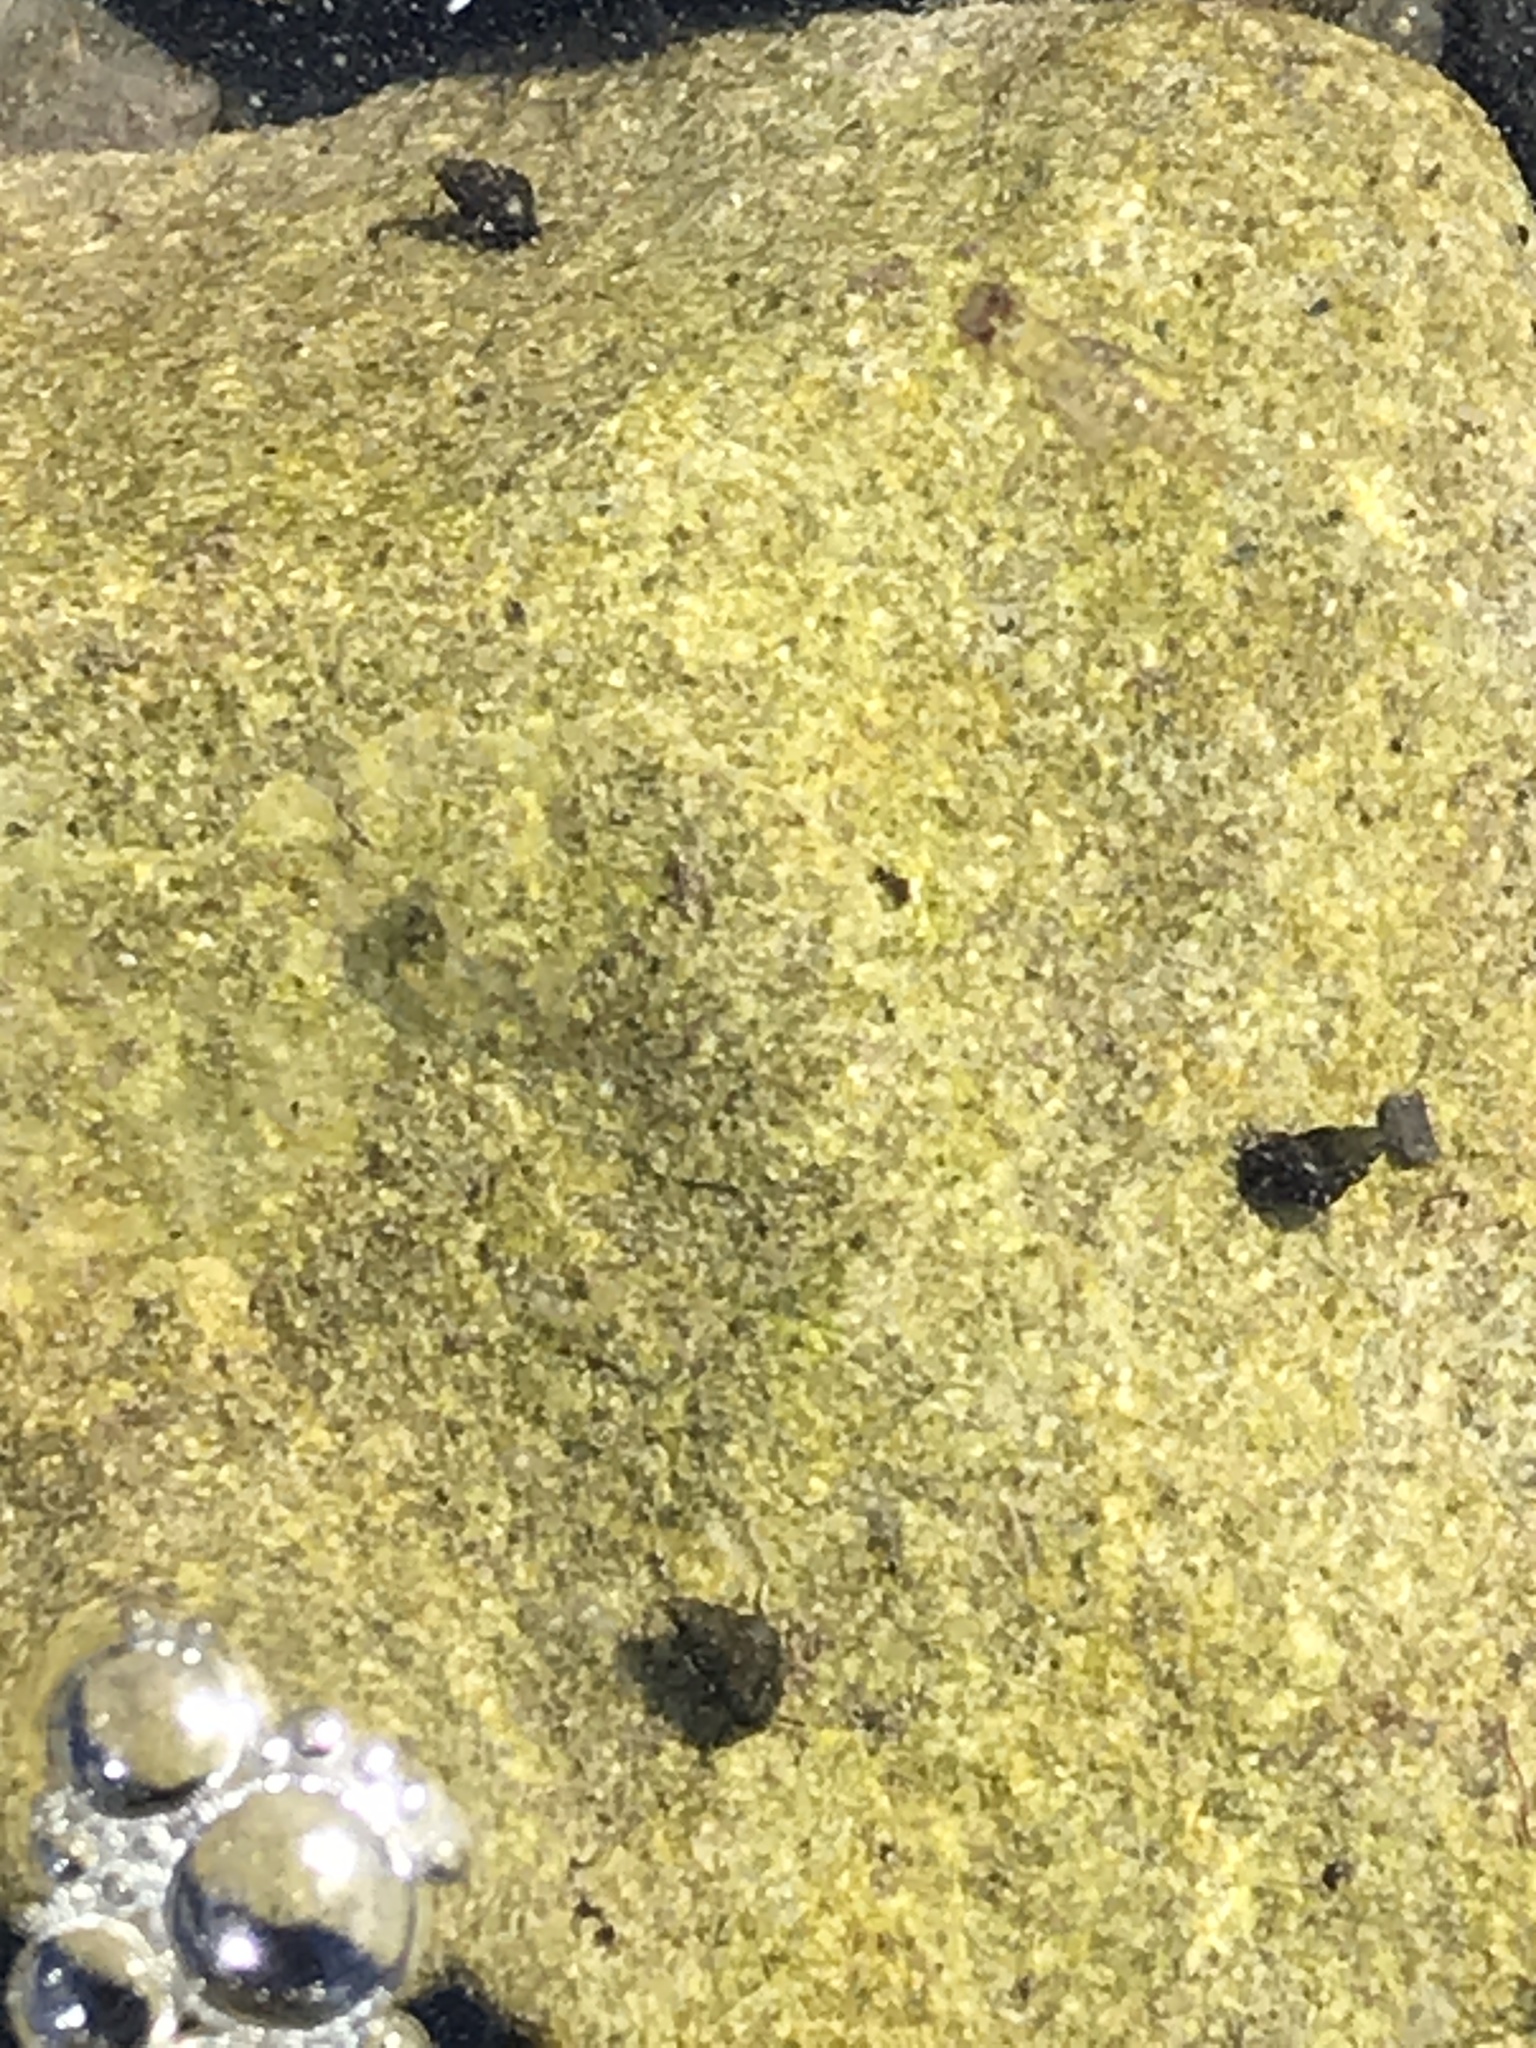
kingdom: Animalia
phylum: Mollusca
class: Gastropoda
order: Littorinimorpha
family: Tateidae
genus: Potamopyrgus
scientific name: Potamopyrgus antipodarum
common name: Jenkins' spire snail
